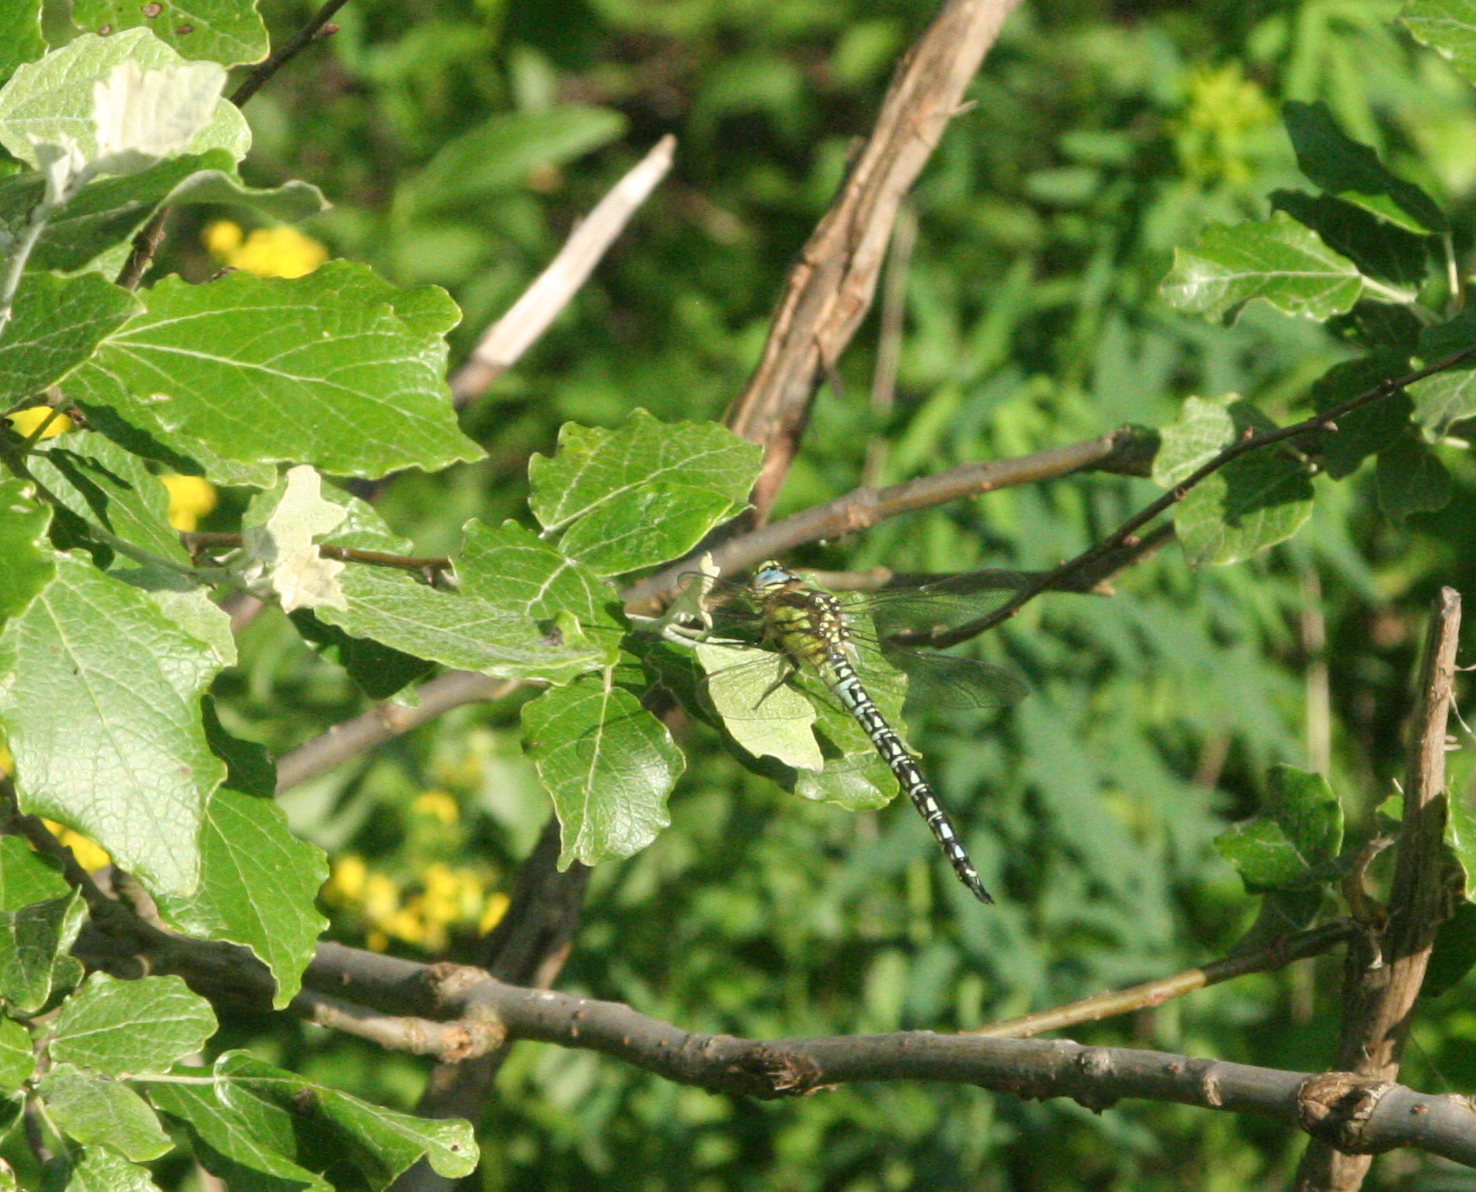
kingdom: Plantae
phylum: Tracheophyta
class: Magnoliopsida
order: Malpighiales
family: Salicaceae
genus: Populus
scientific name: Populus alba
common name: White poplar
